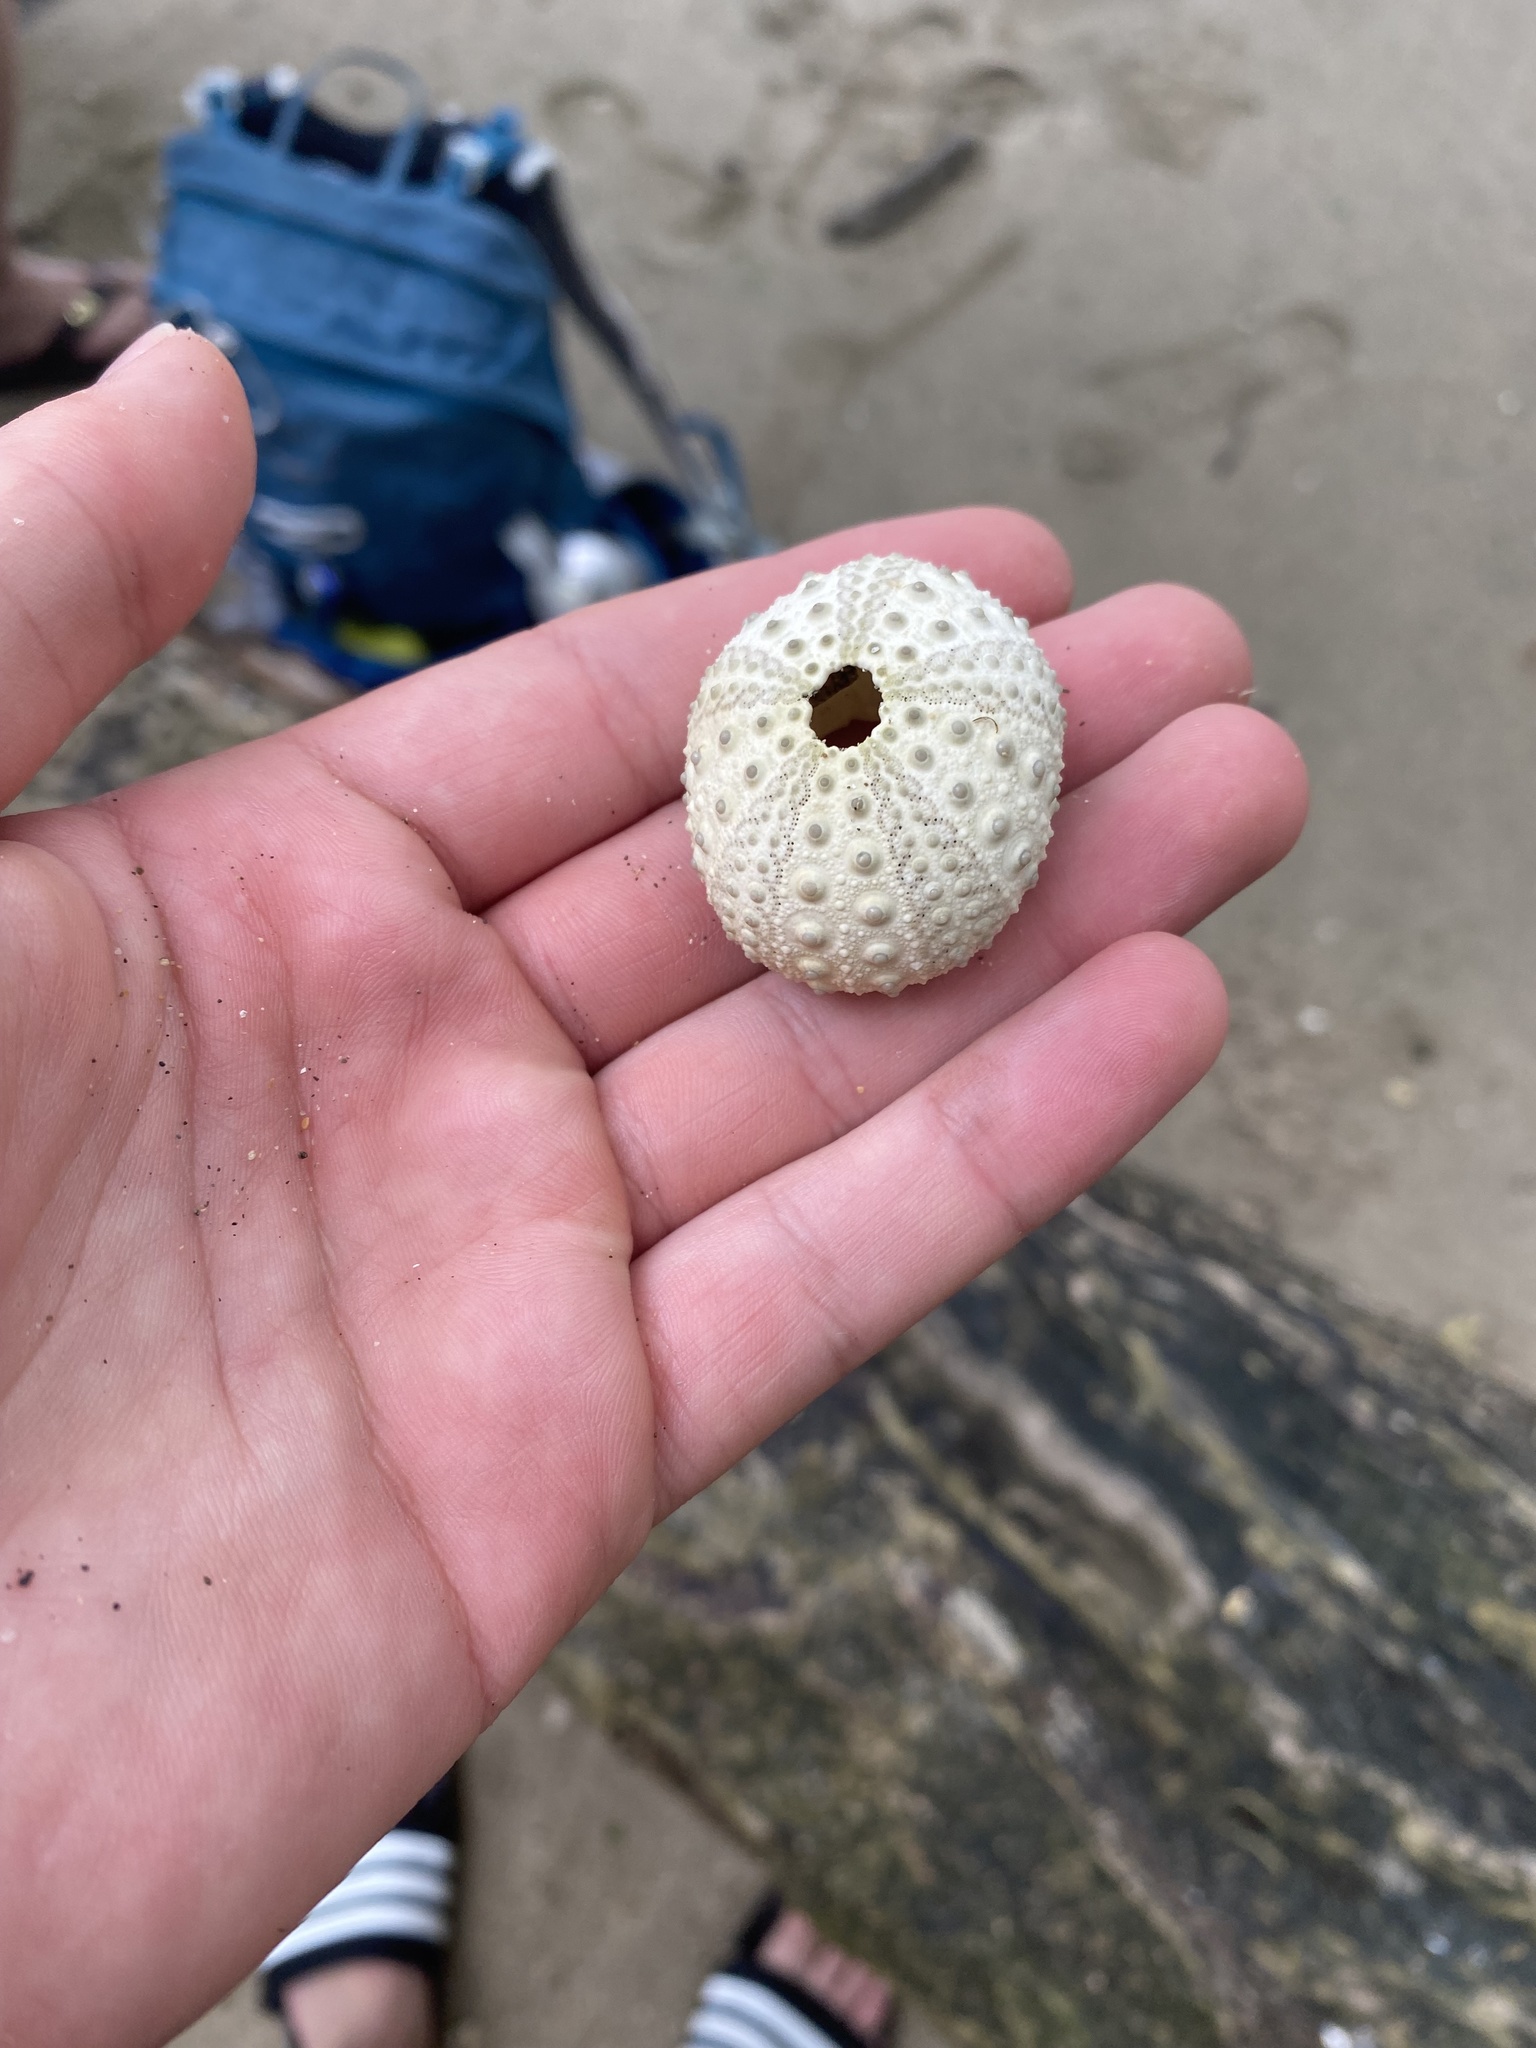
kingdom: Animalia
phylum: Echinodermata
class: Echinoidea
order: Camarodonta
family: Echinometridae
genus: Echinometra
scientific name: Echinometra lucunter
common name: Rock urchin
